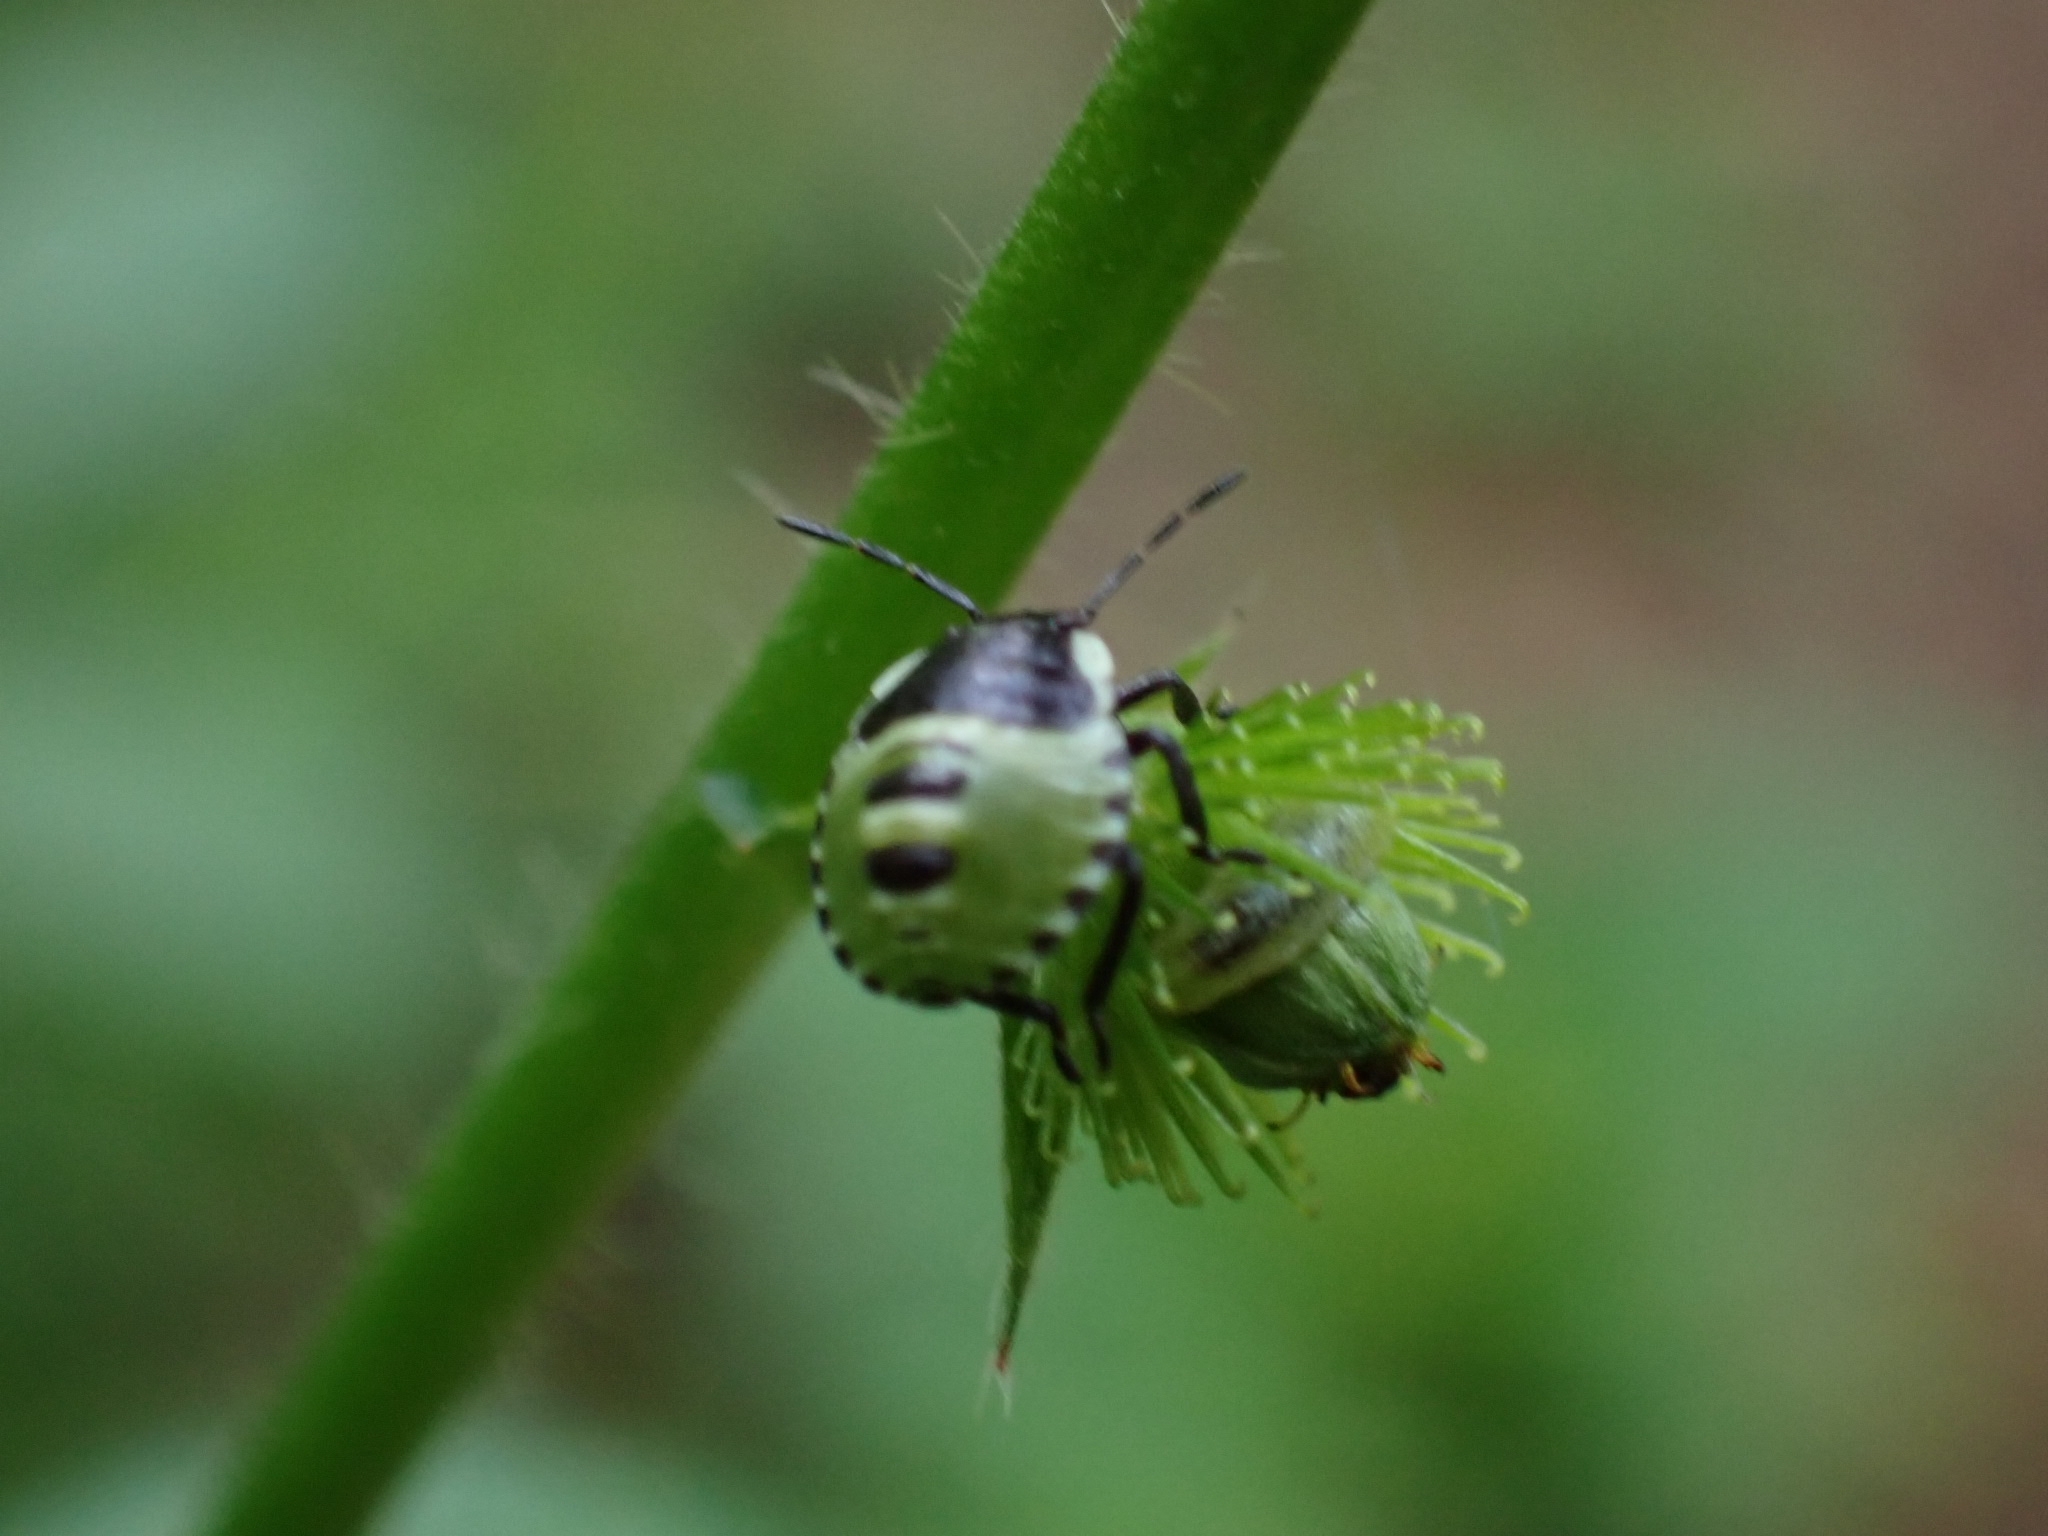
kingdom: Animalia
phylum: Arthropoda
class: Insecta
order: Hemiptera
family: Pentatomidae
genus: Palomena
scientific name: Palomena prasina
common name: Green shieldbug
